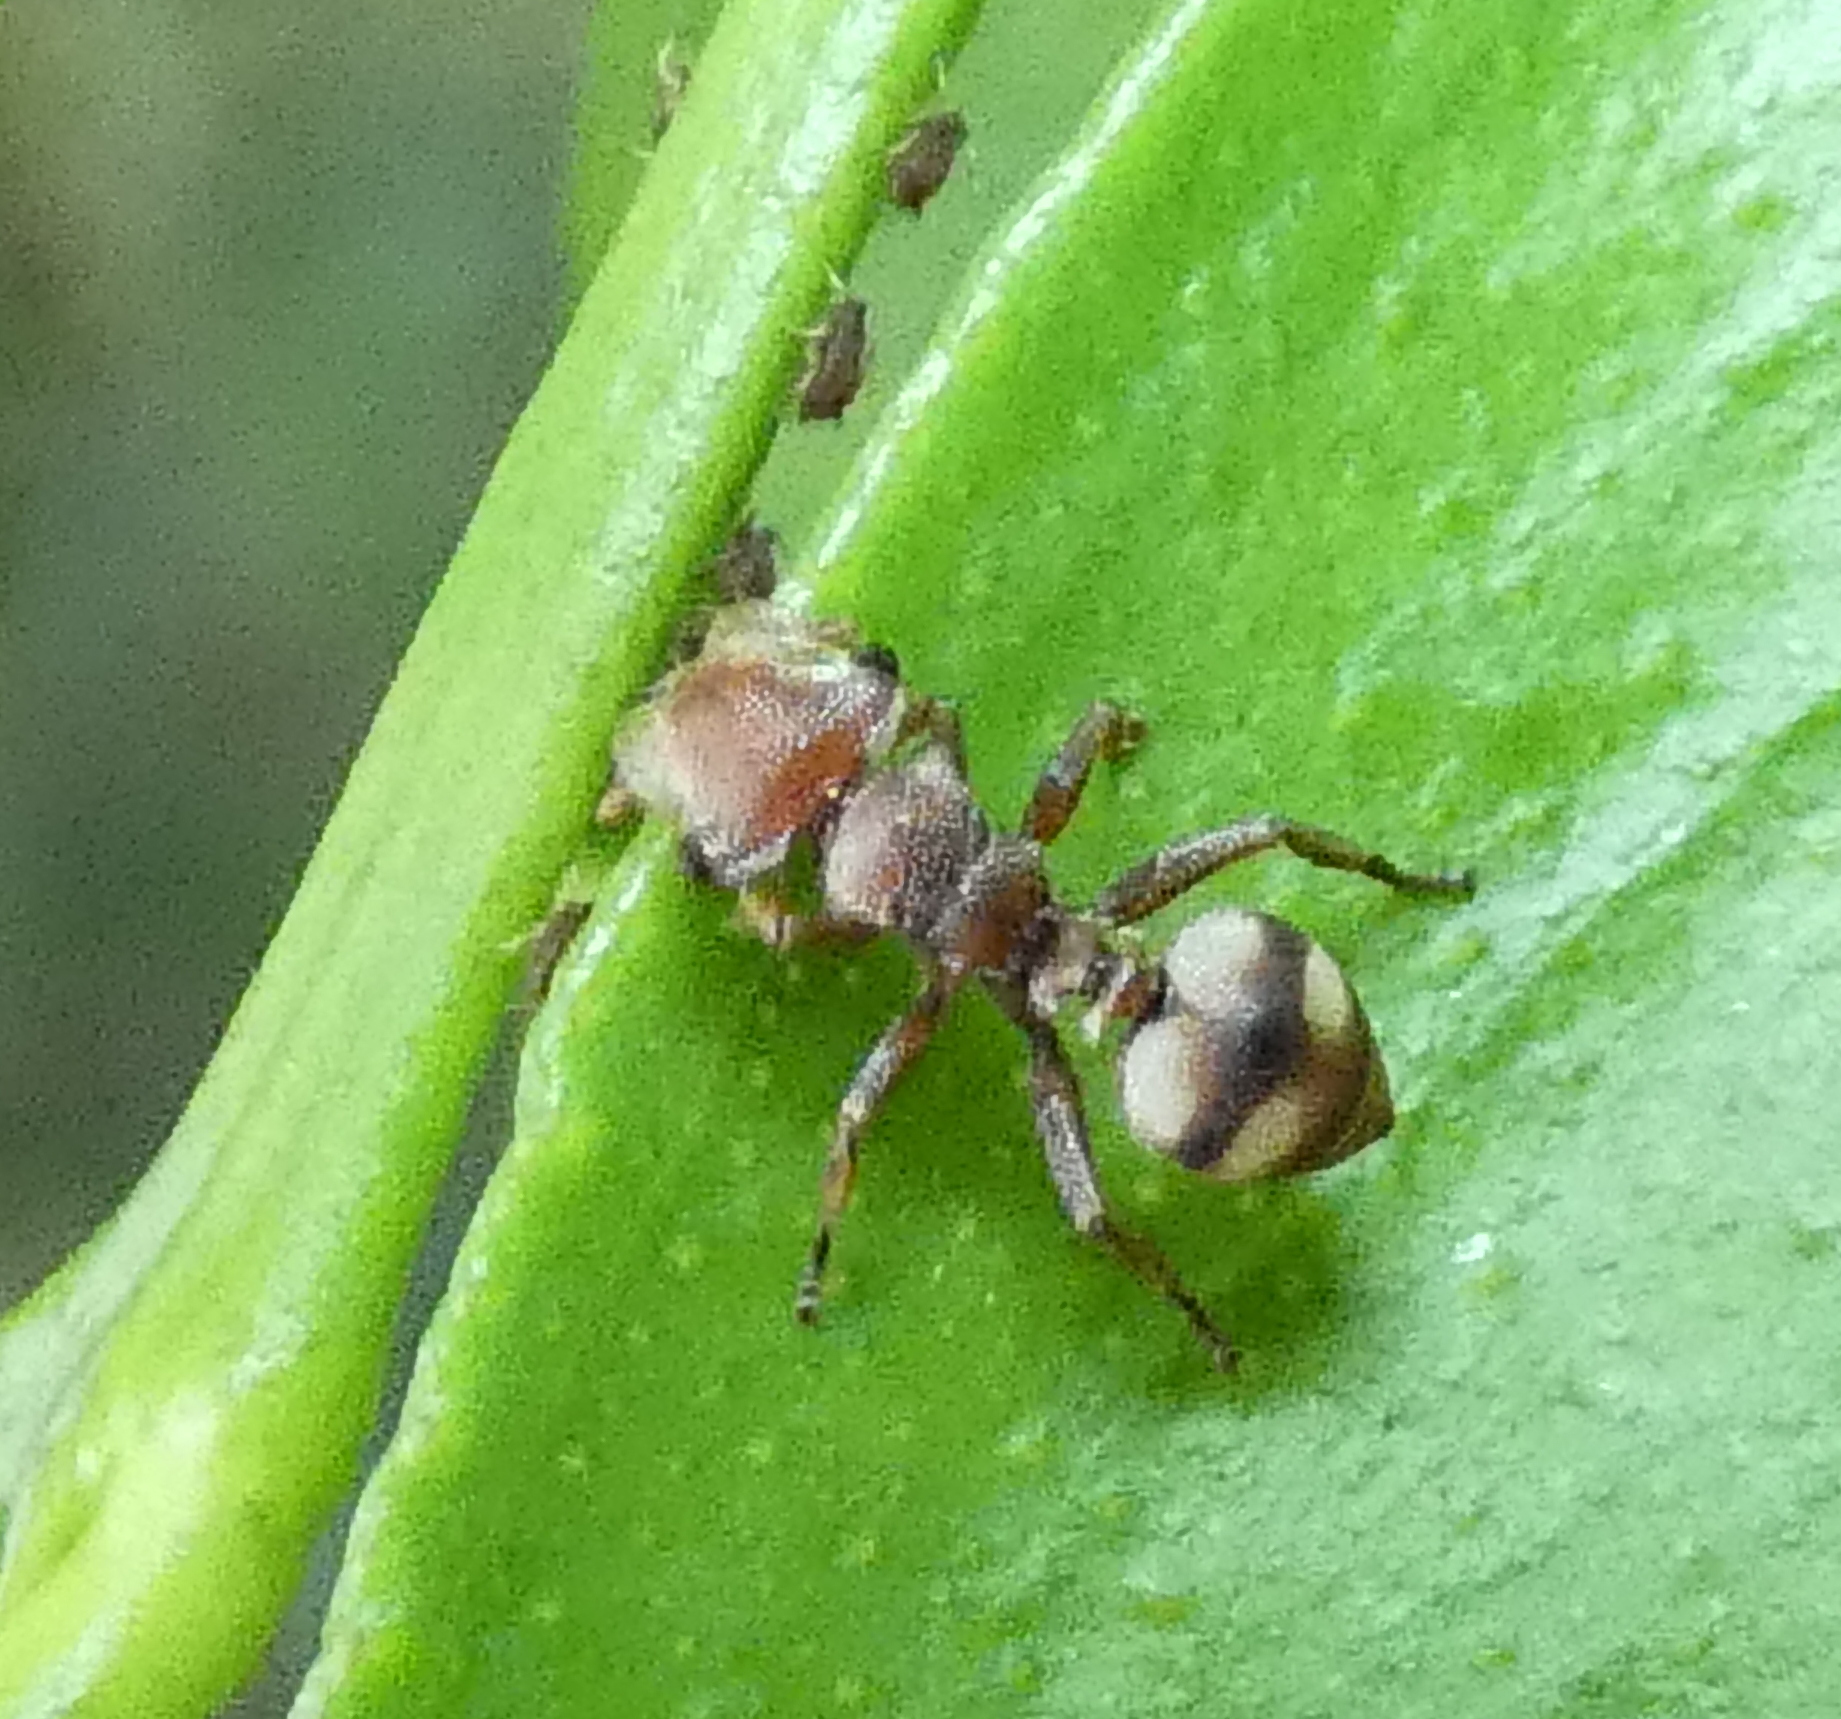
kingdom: Animalia
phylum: Arthropoda
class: Insecta
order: Hymenoptera
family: Formicidae
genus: Cephalotes
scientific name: Cephalotes umbraculatus
